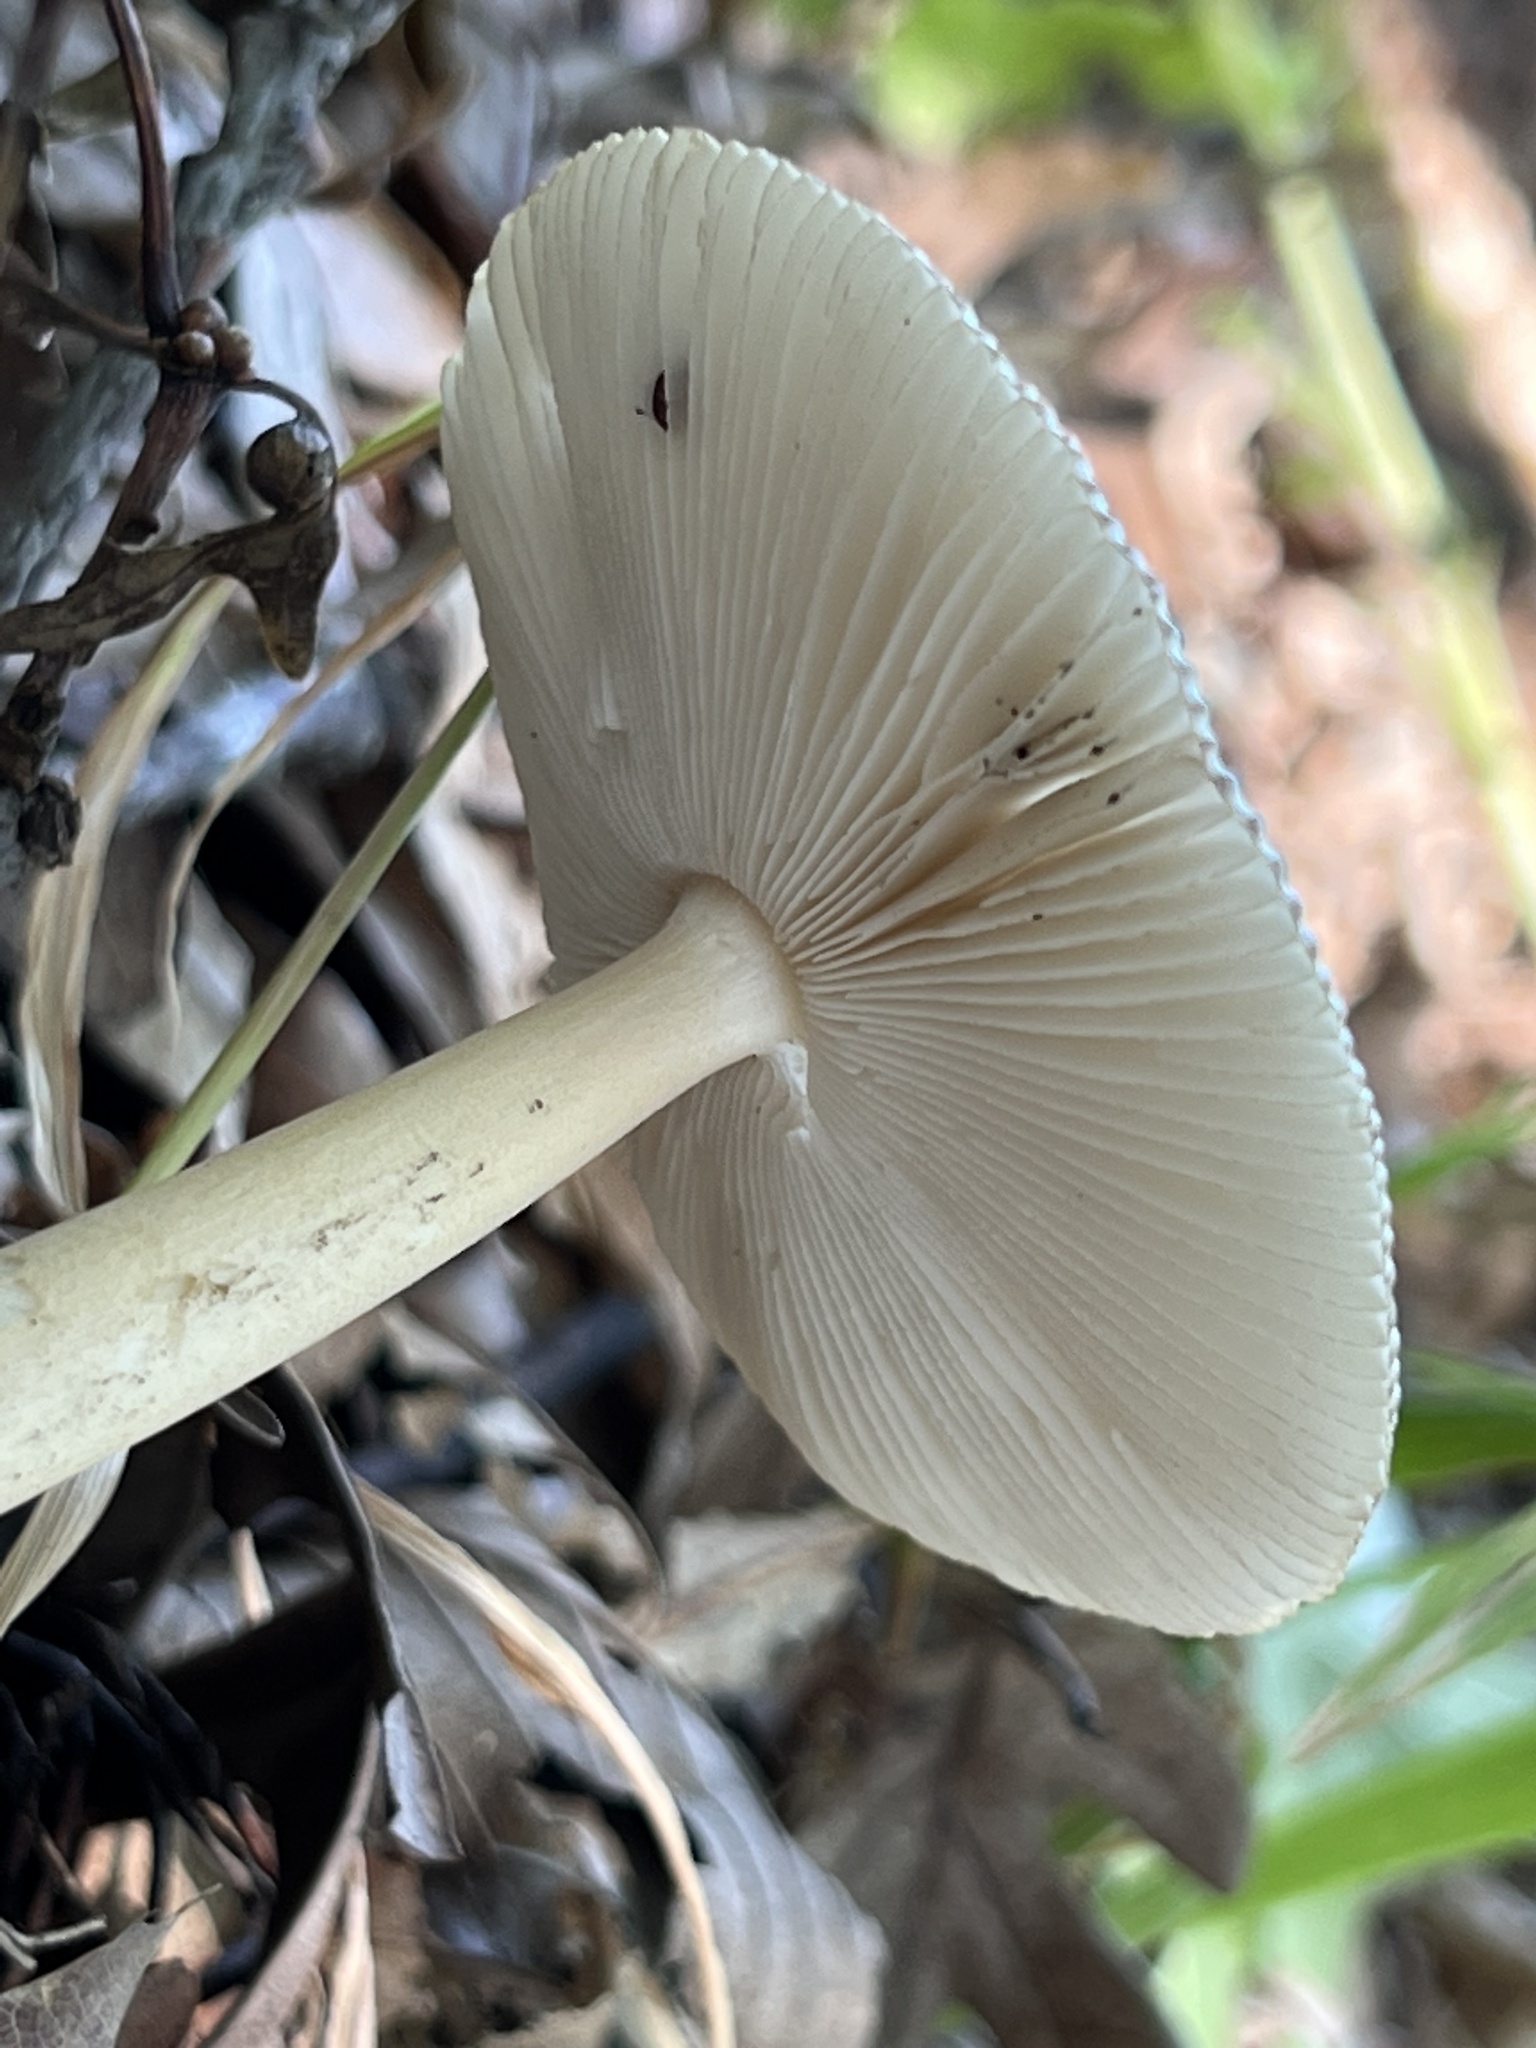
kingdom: Fungi
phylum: Basidiomycota
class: Agaricomycetes
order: Agaricales
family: Amanitaceae
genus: Amanita
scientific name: Amanita vaginata
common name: Grisette
